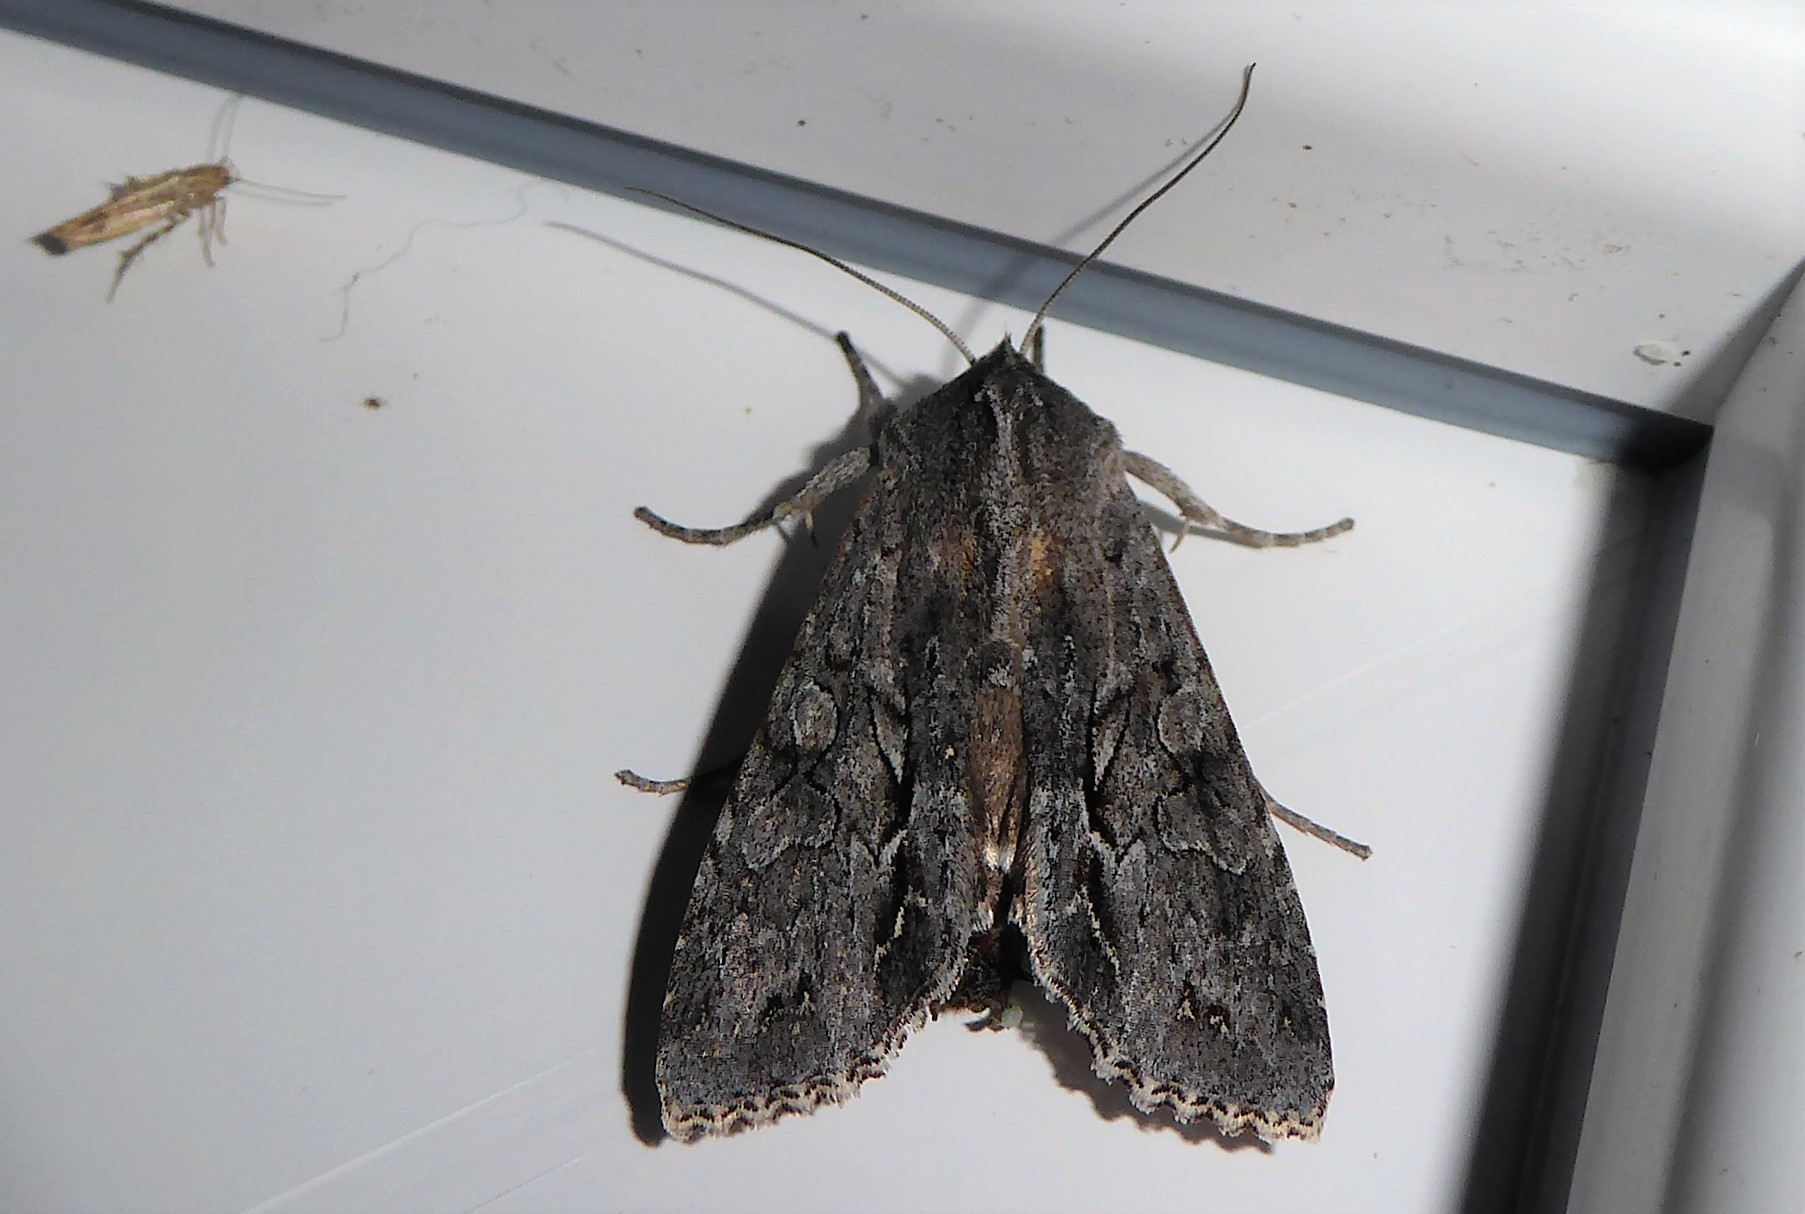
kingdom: Animalia
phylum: Arthropoda
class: Insecta
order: Lepidoptera
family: Noctuidae
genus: Ichneutica
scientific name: Ichneutica
